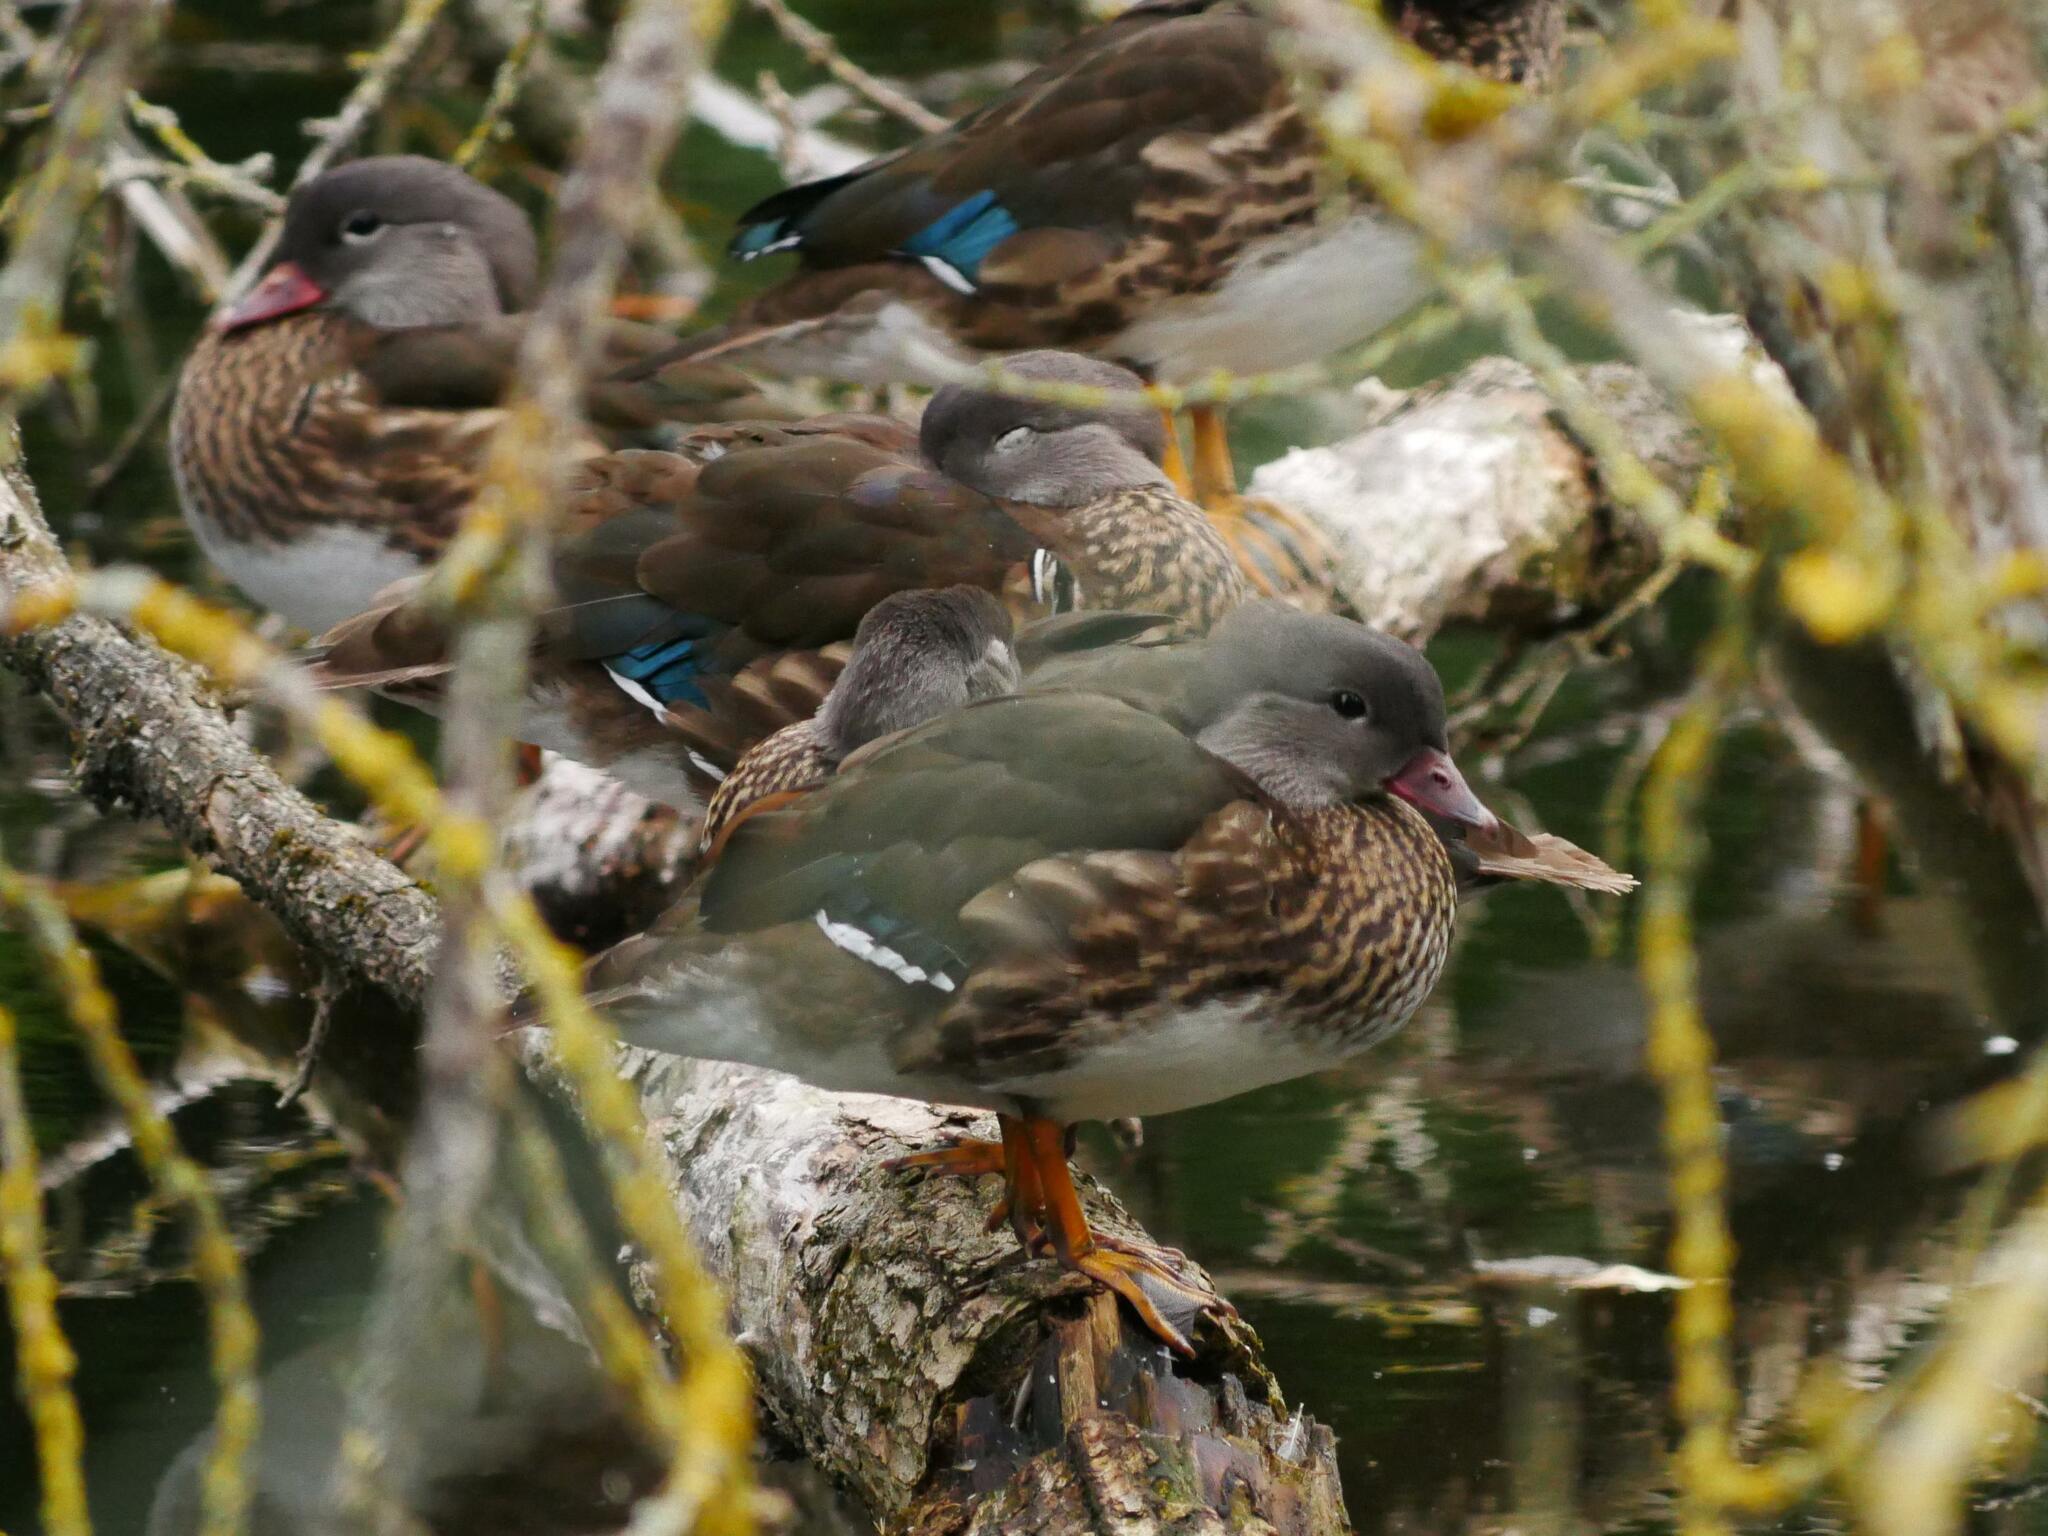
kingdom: Animalia
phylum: Chordata
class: Aves
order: Anseriformes
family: Anatidae
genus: Aix
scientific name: Aix galericulata
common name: Mandarin duck
